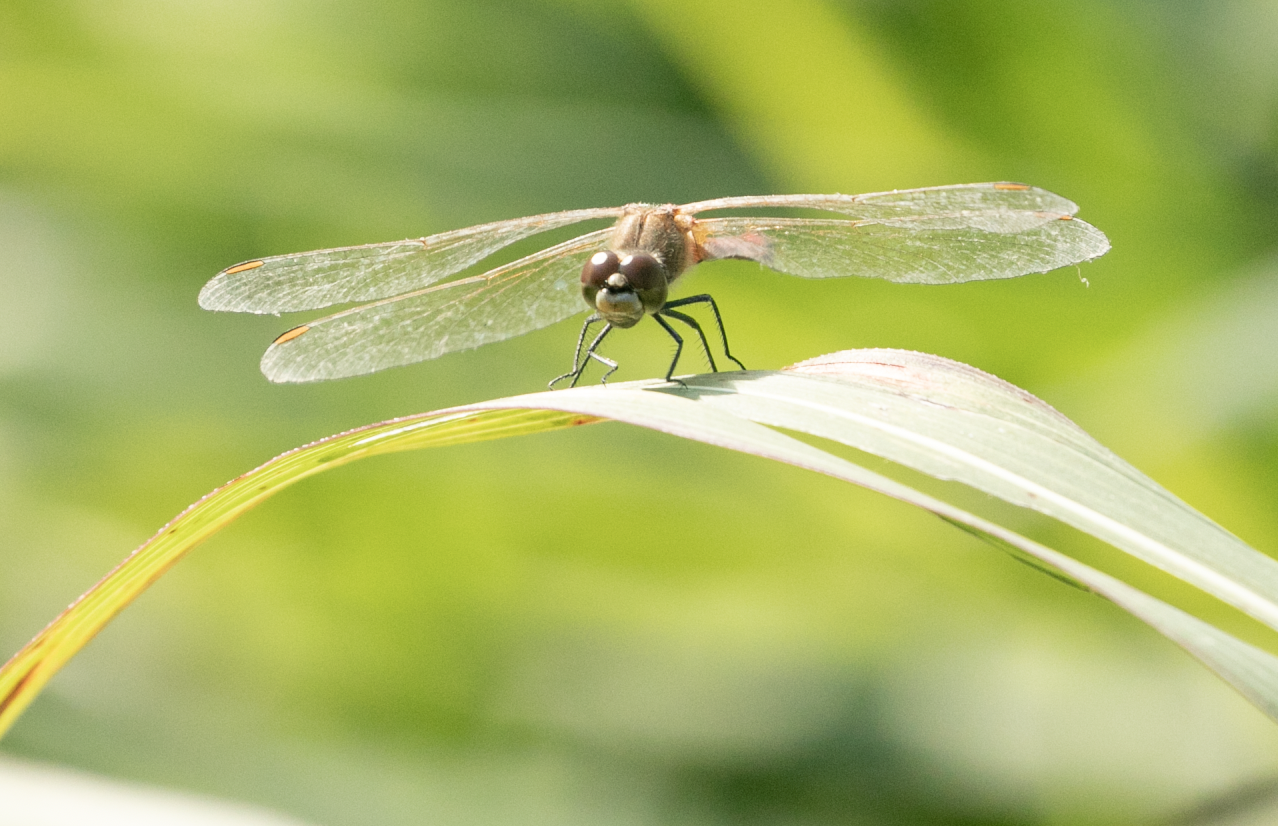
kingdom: Animalia
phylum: Arthropoda
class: Insecta
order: Odonata
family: Libellulidae
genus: Sympetrum
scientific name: Sympetrum depressiusculum
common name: Spotted darter
